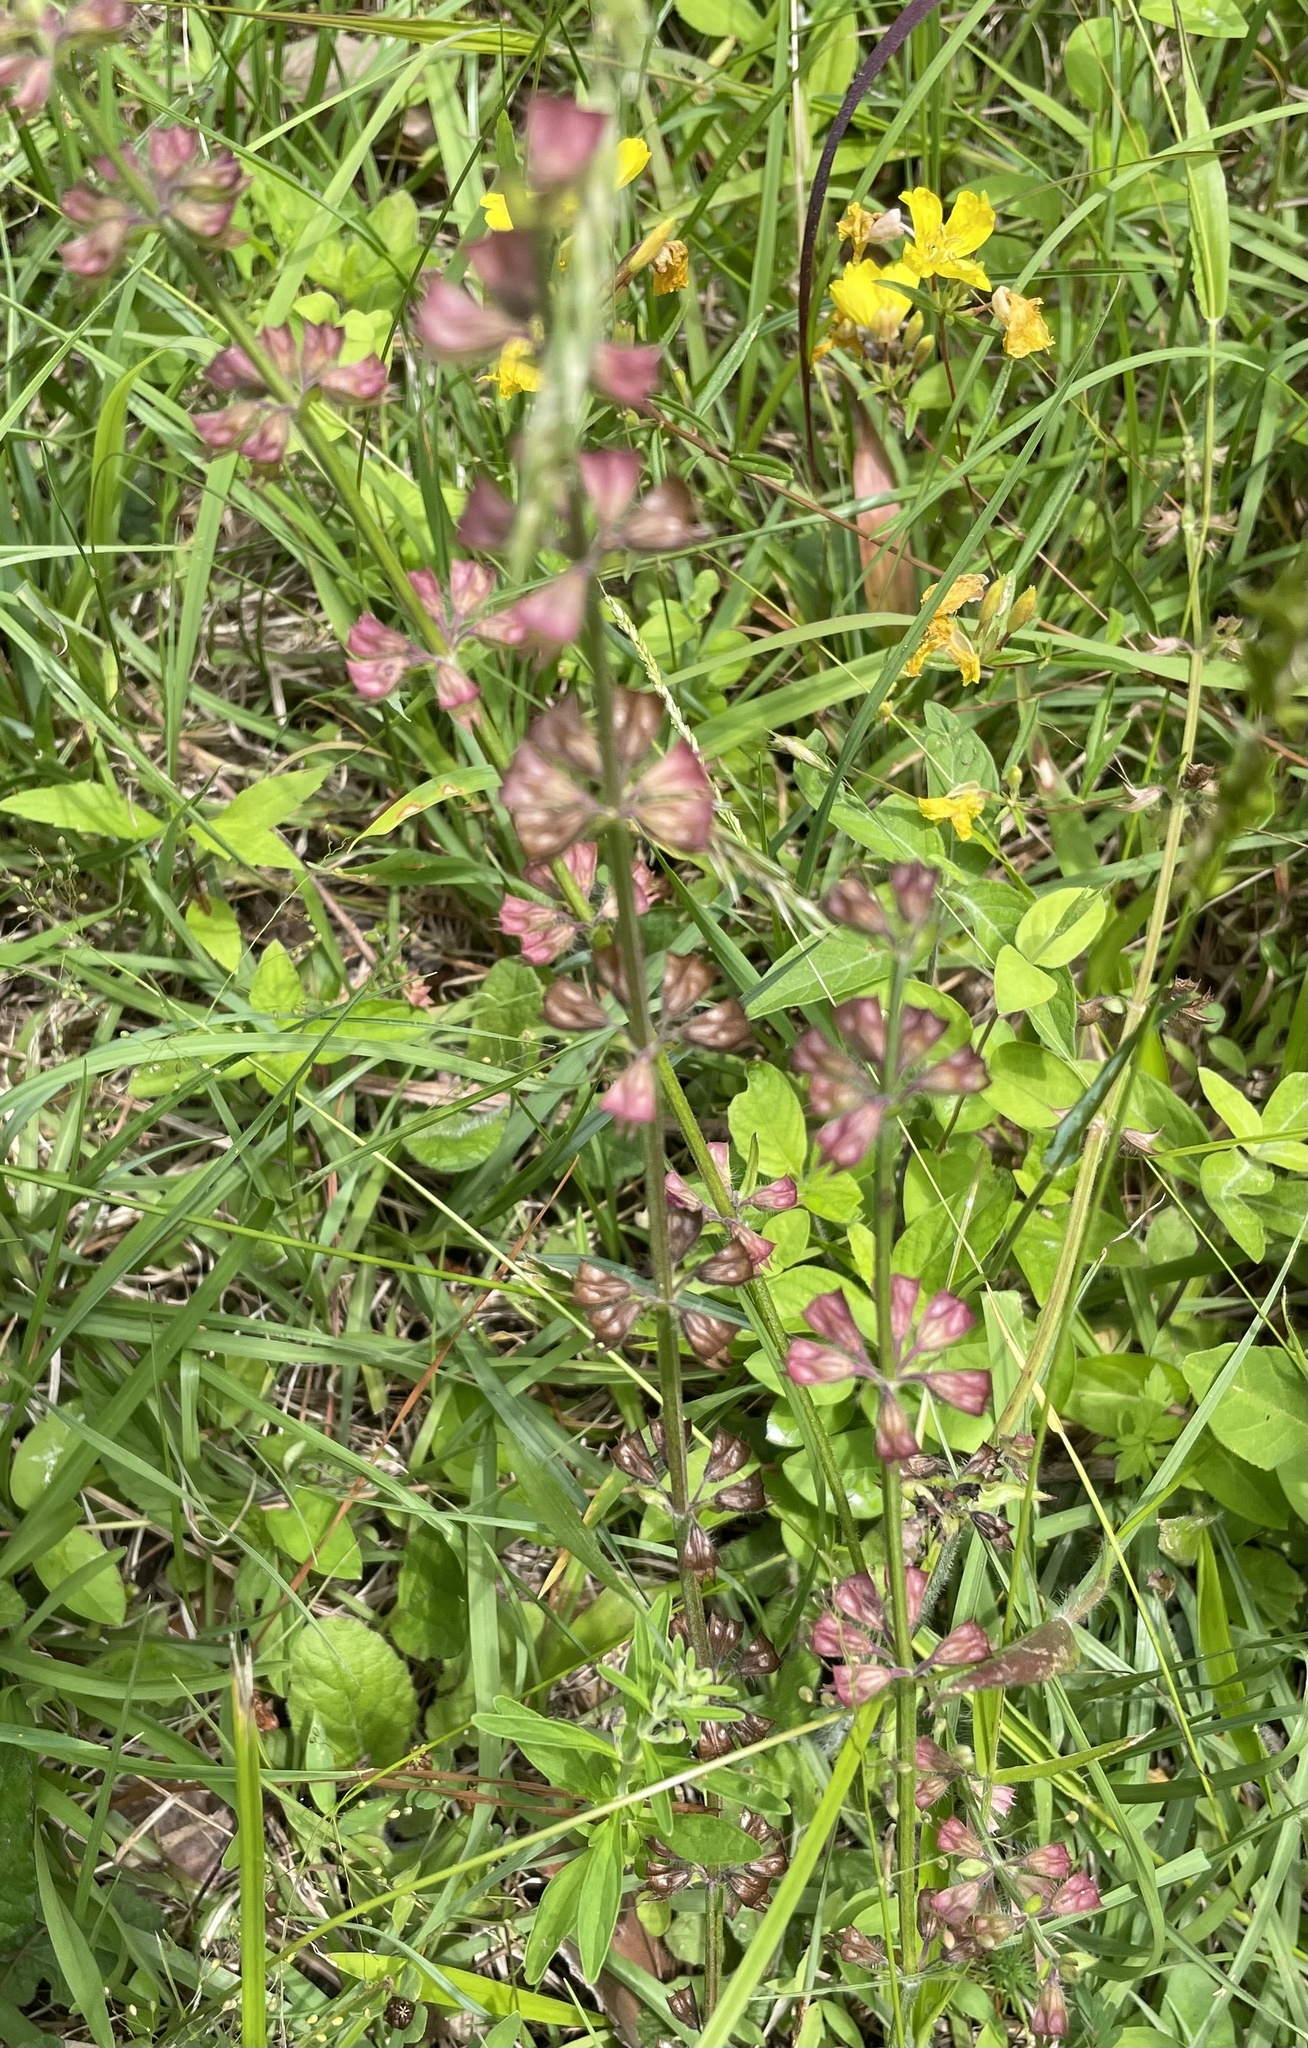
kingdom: Plantae
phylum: Tracheophyta
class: Magnoliopsida
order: Lamiales
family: Lamiaceae
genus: Salvia
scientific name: Salvia lyrata
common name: Cancerweed
